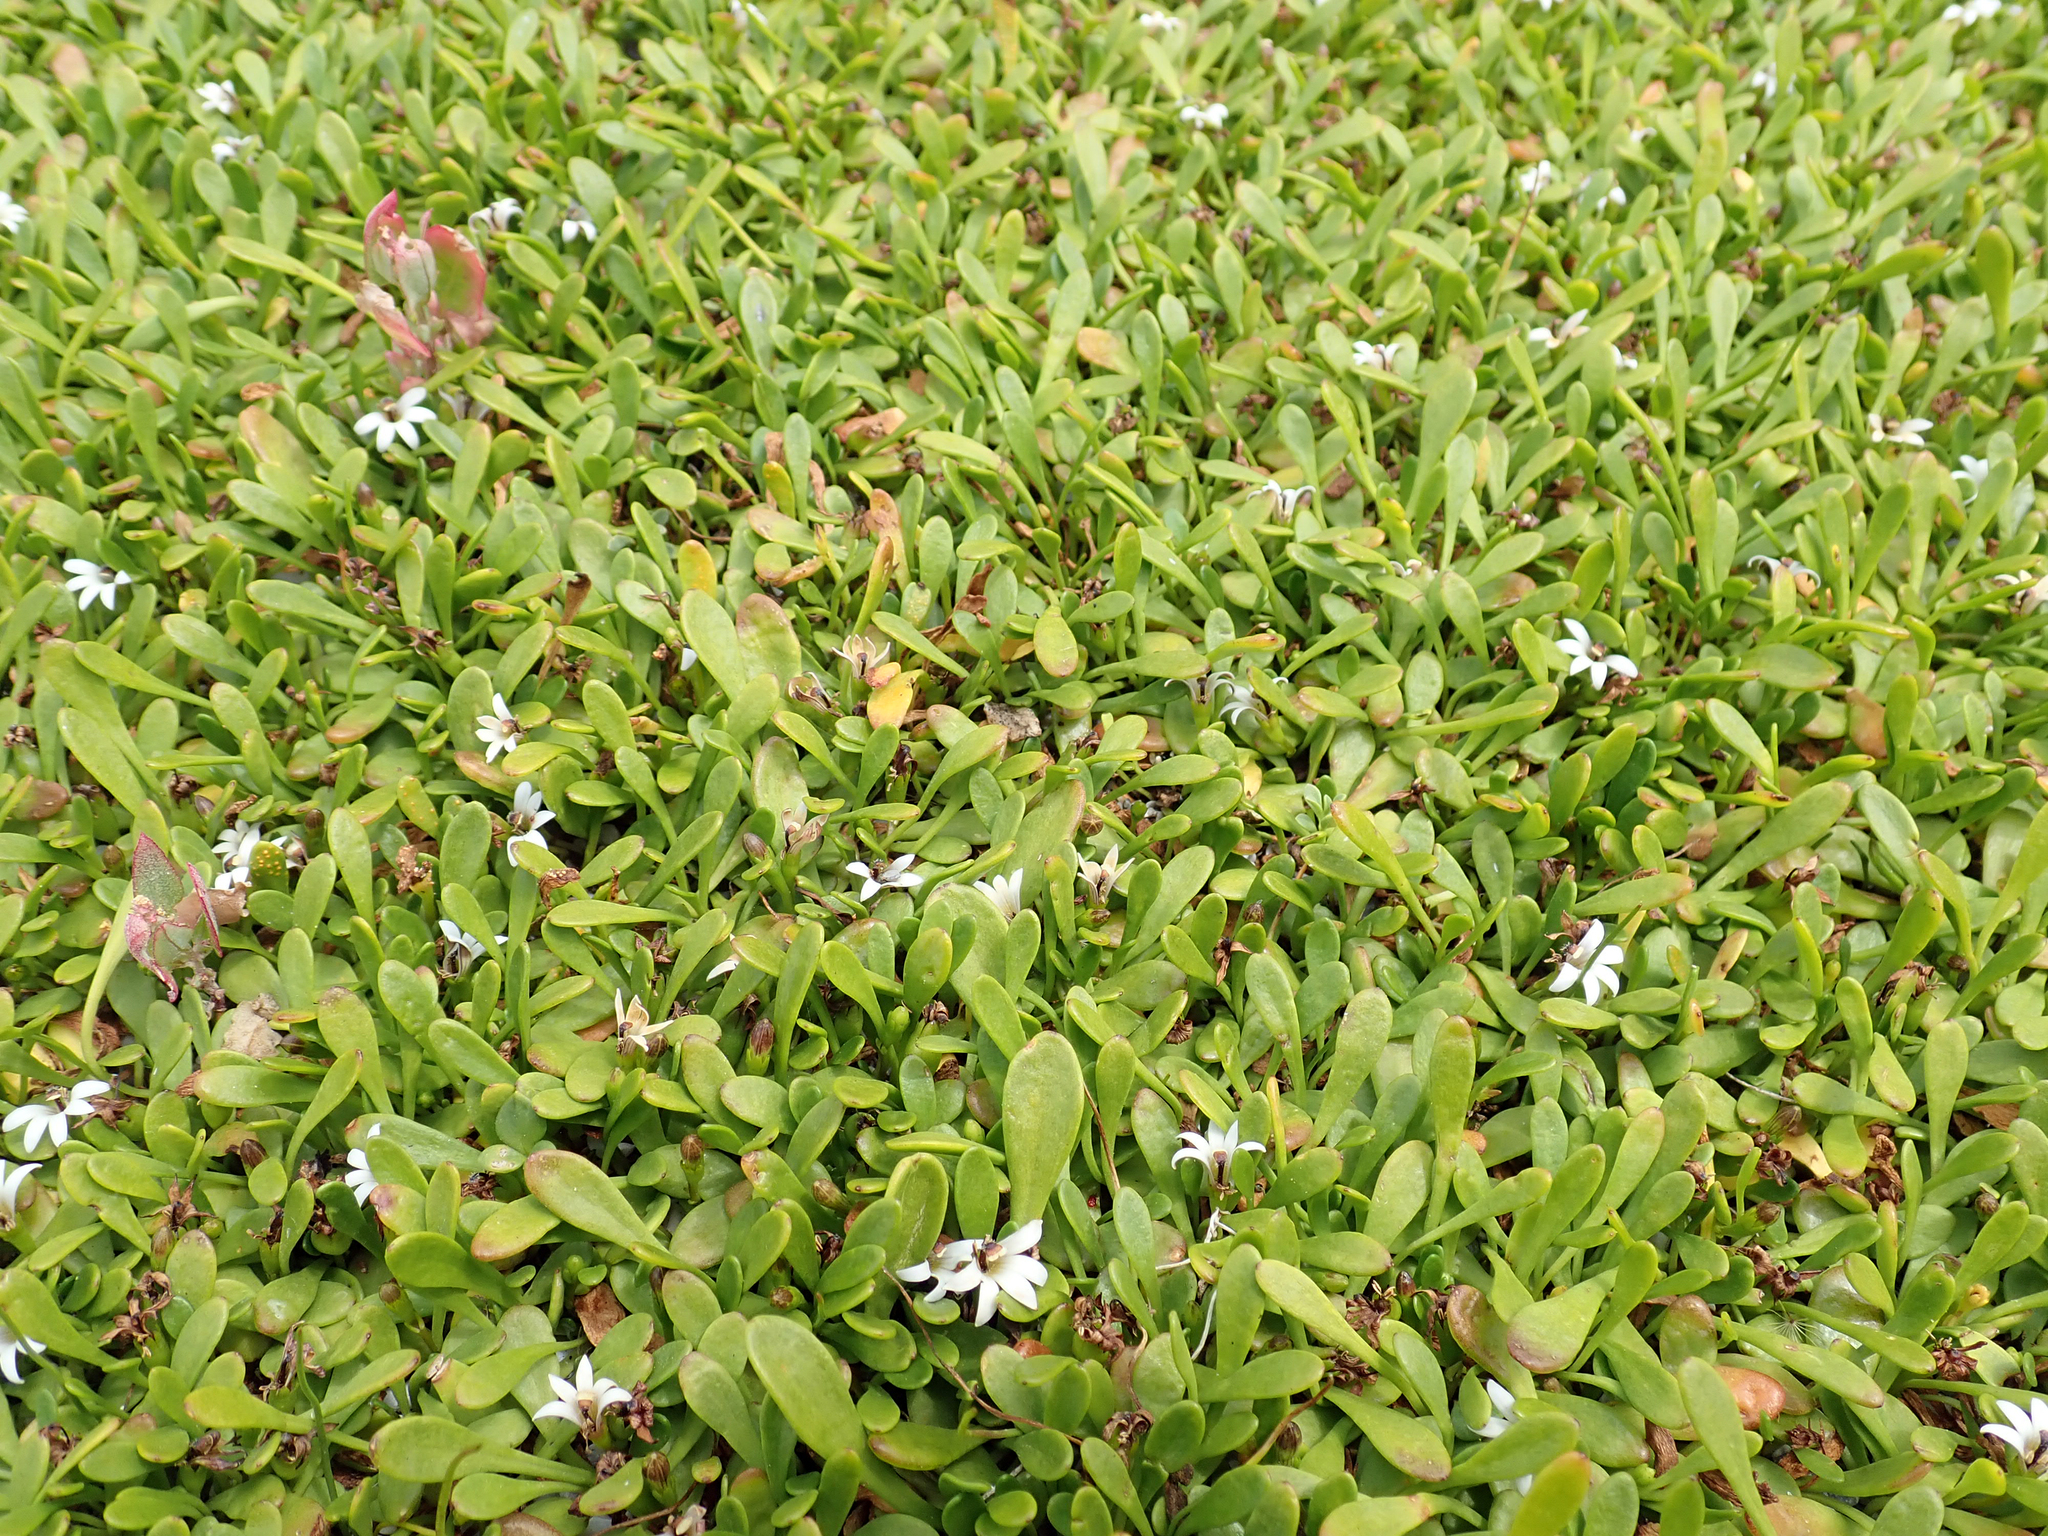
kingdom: Plantae
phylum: Tracheophyta
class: Magnoliopsida
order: Asterales
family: Goodeniaceae
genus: Goodenia
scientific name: Goodenia radicans
